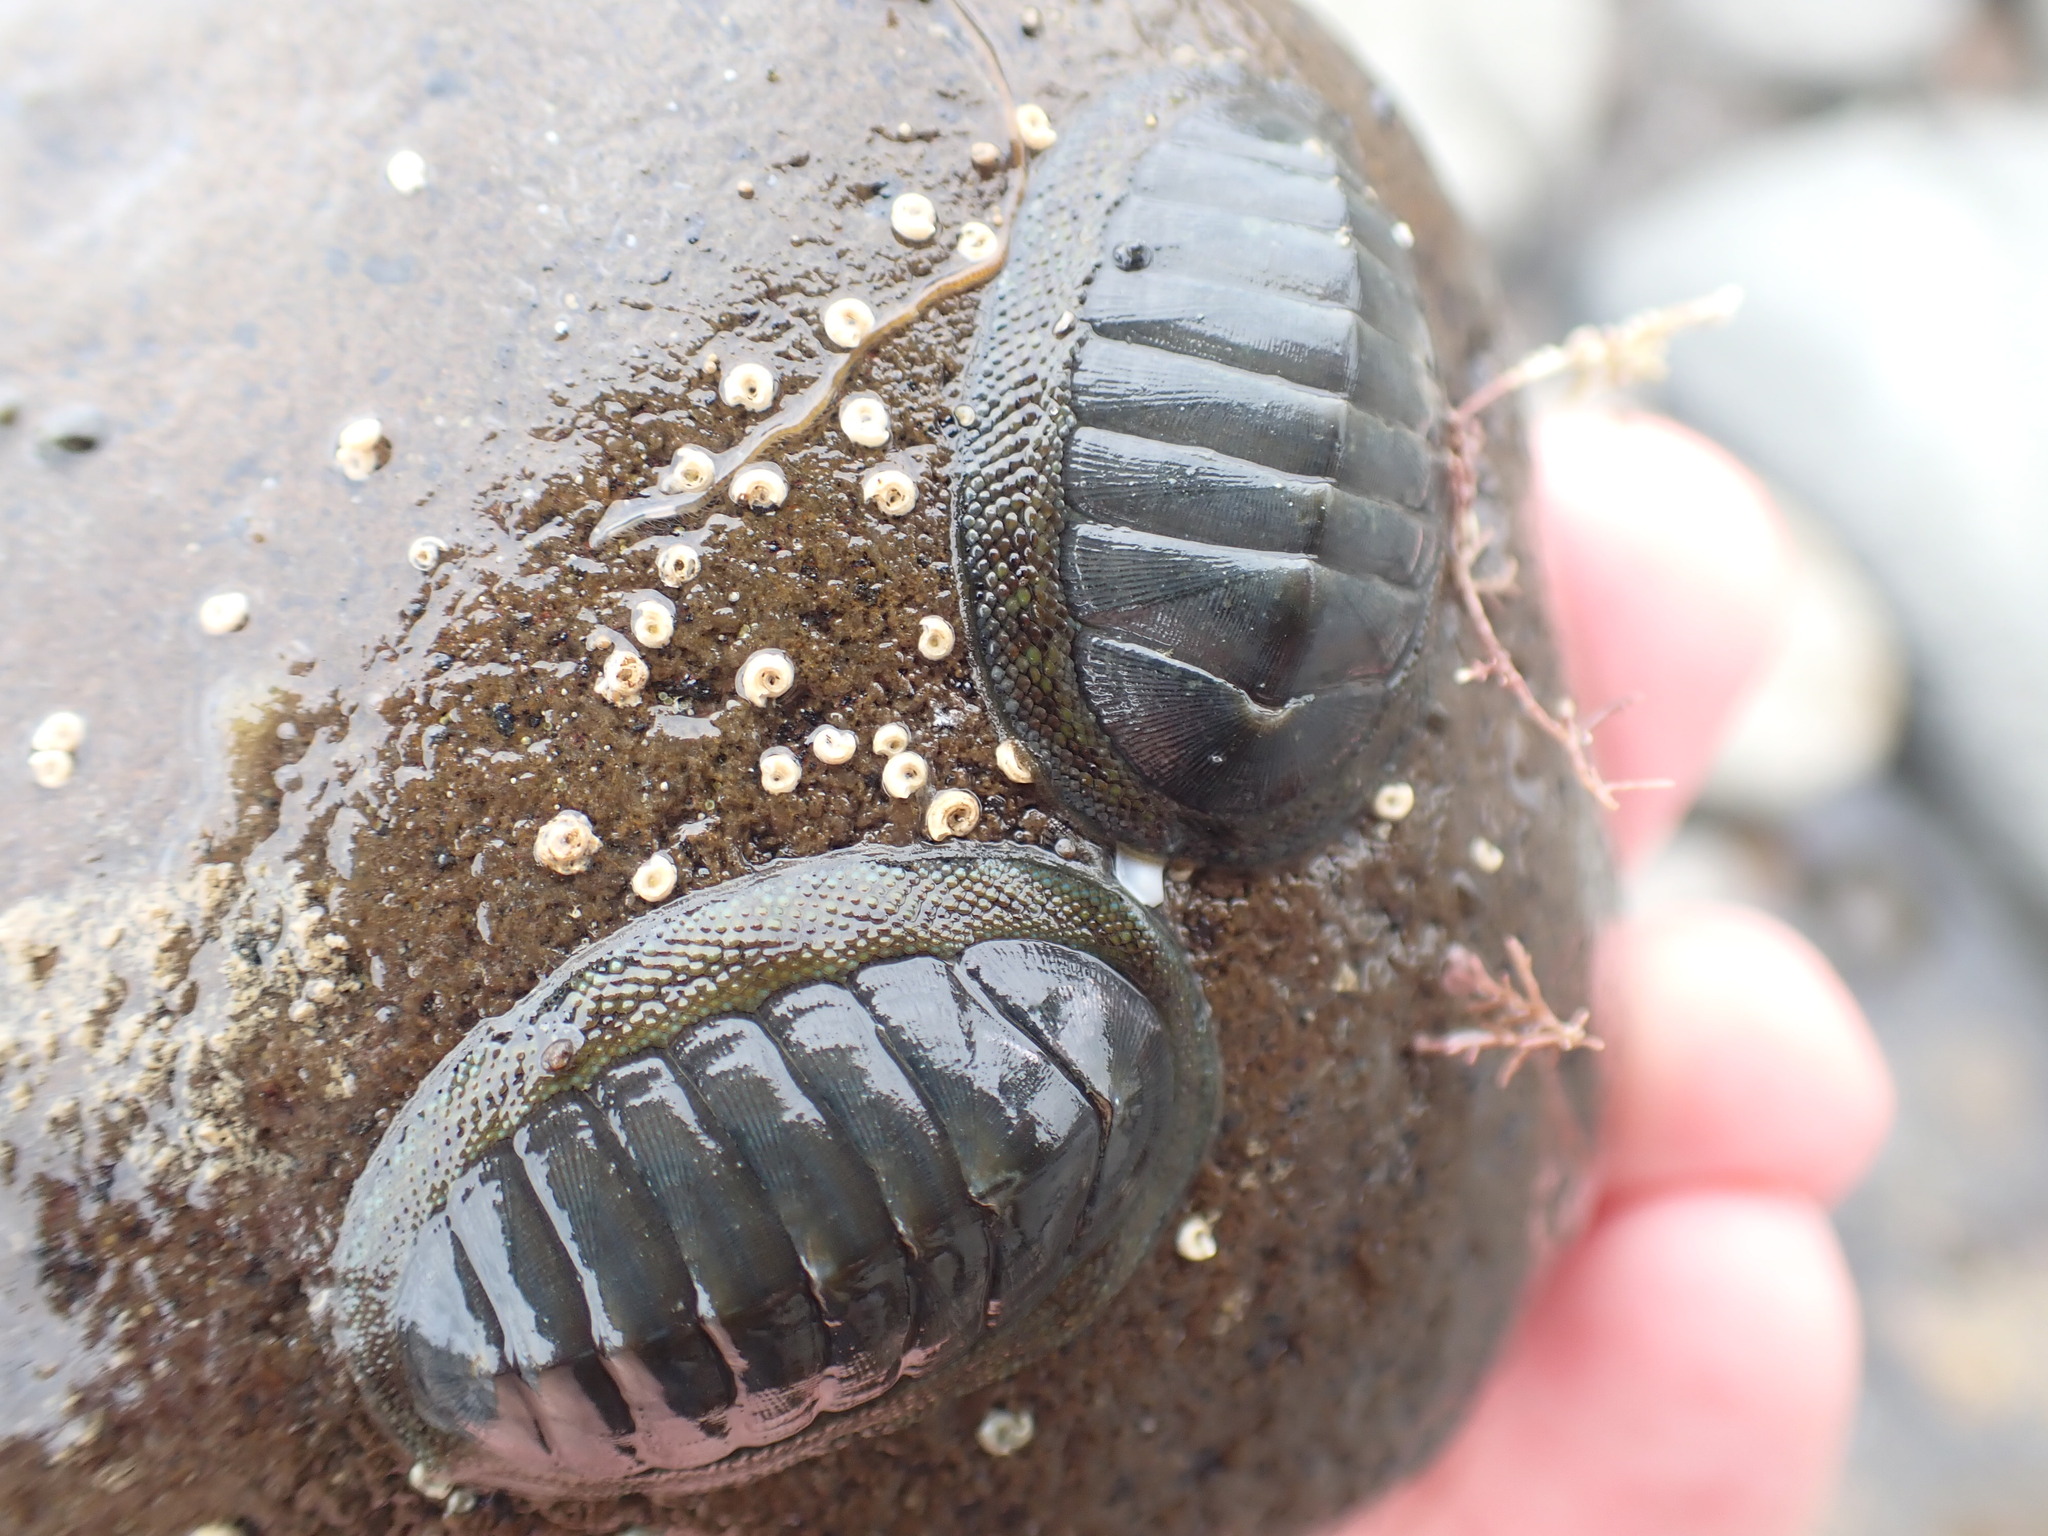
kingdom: Animalia
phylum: Mollusca
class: Polyplacophora
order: Chitonida
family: Chitonidae
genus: Chiton
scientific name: Chiton glaucus
